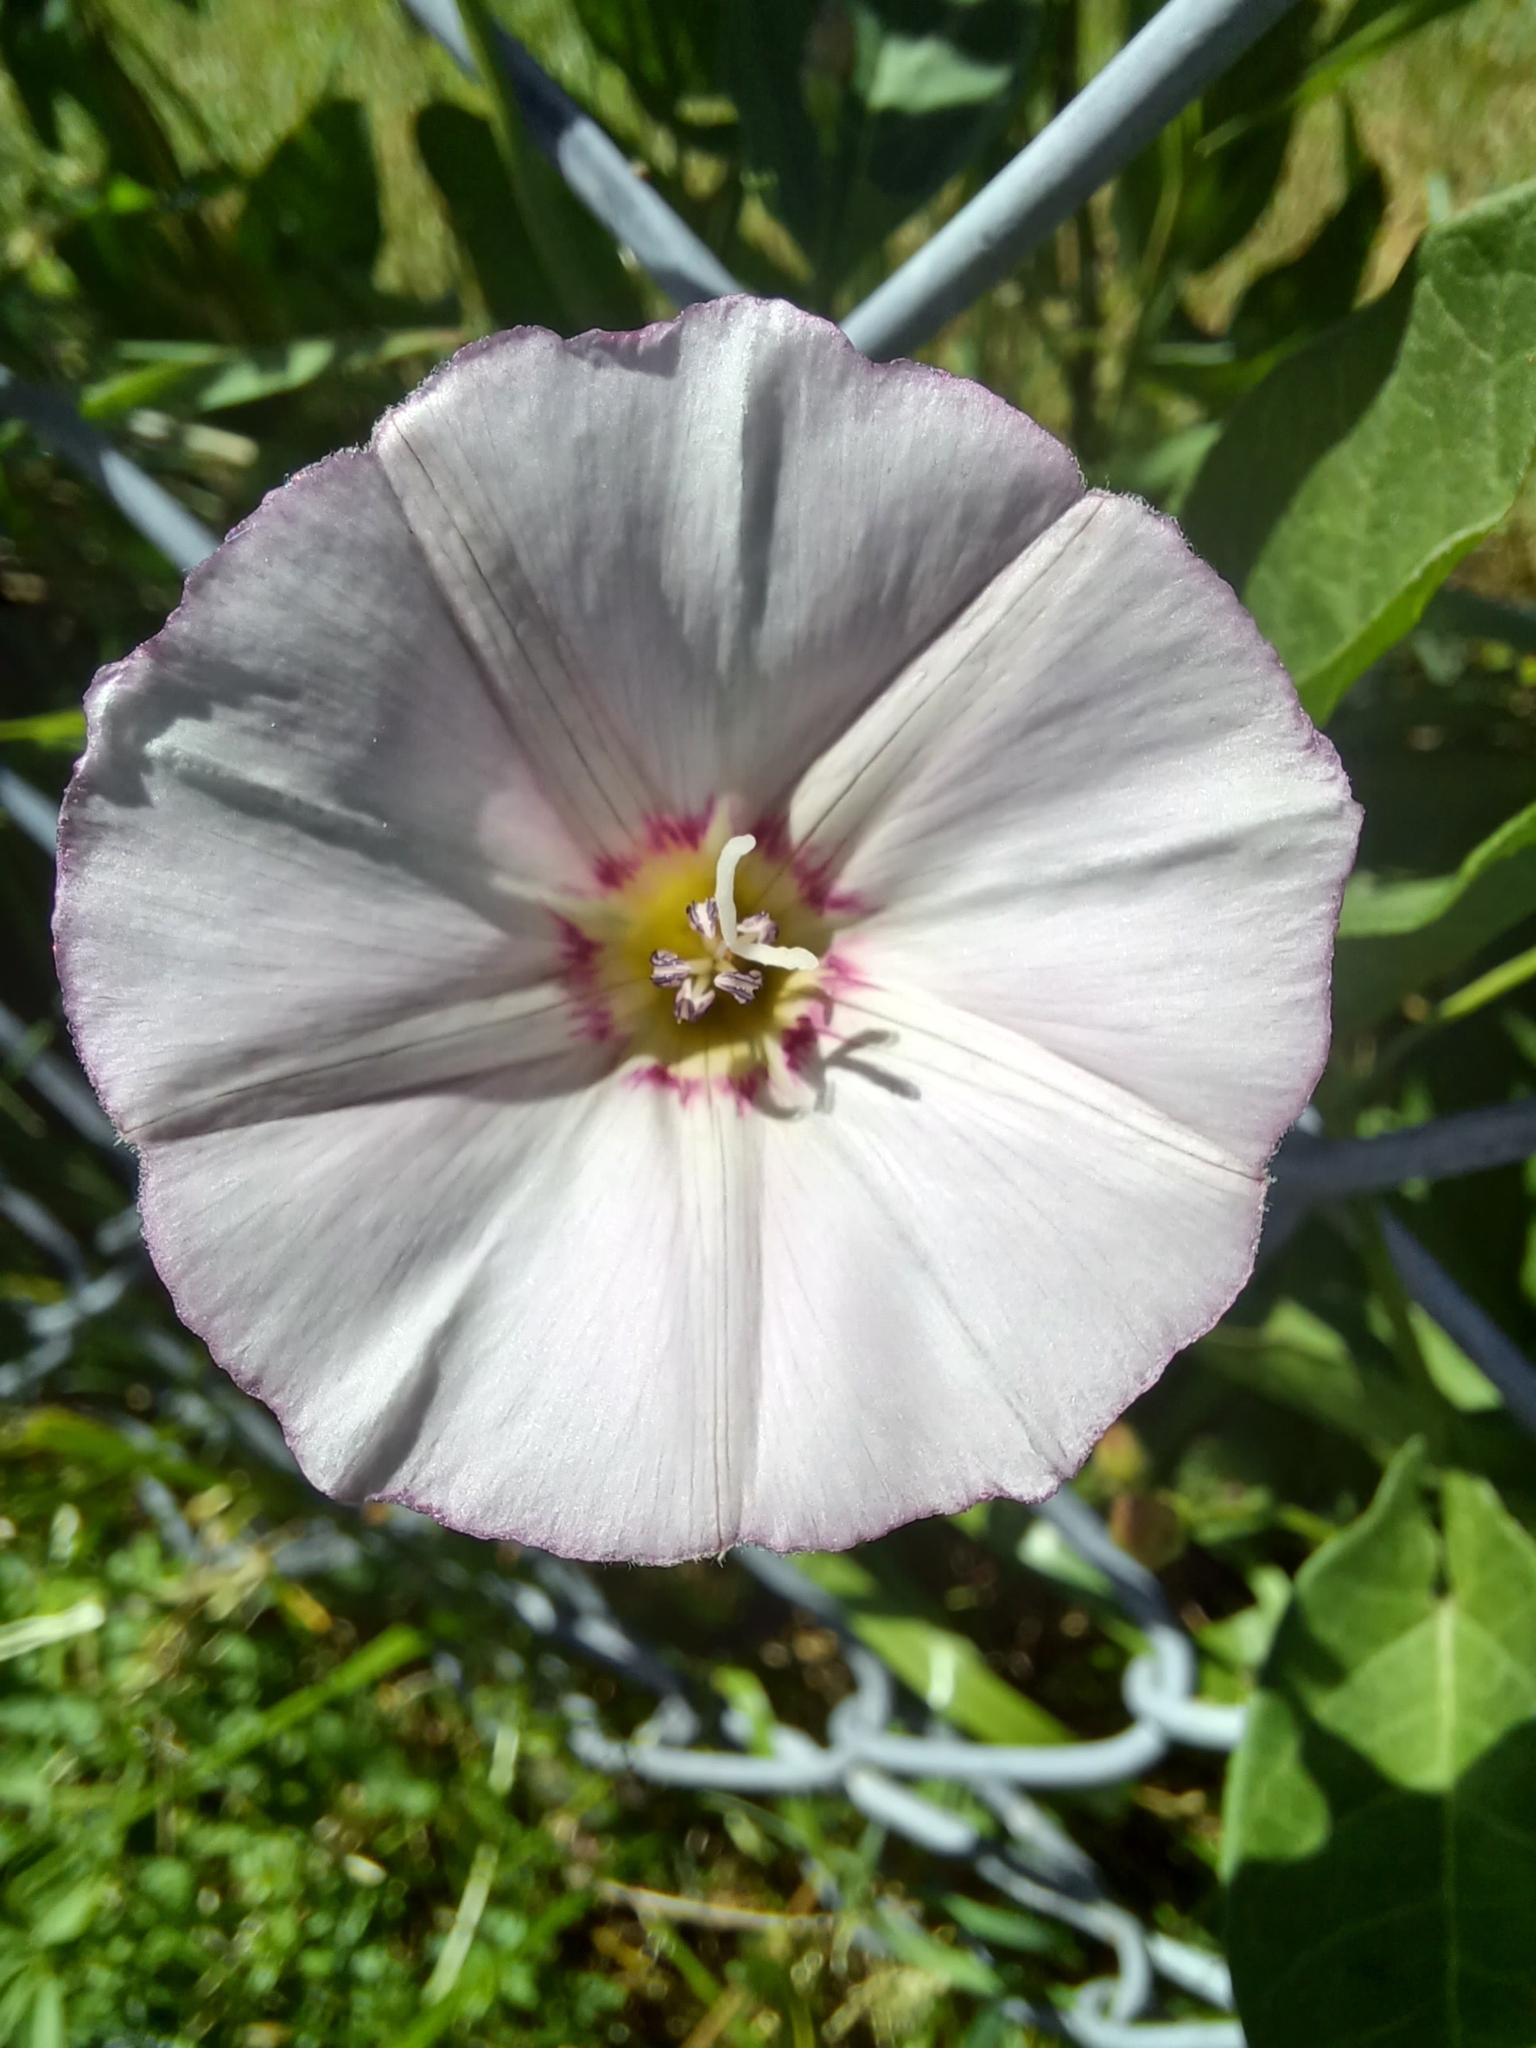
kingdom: Plantae
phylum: Tracheophyta
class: Magnoliopsida
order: Solanales
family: Convolvulaceae
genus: Convolvulus
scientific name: Convolvulus arvensis
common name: Field bindweed
